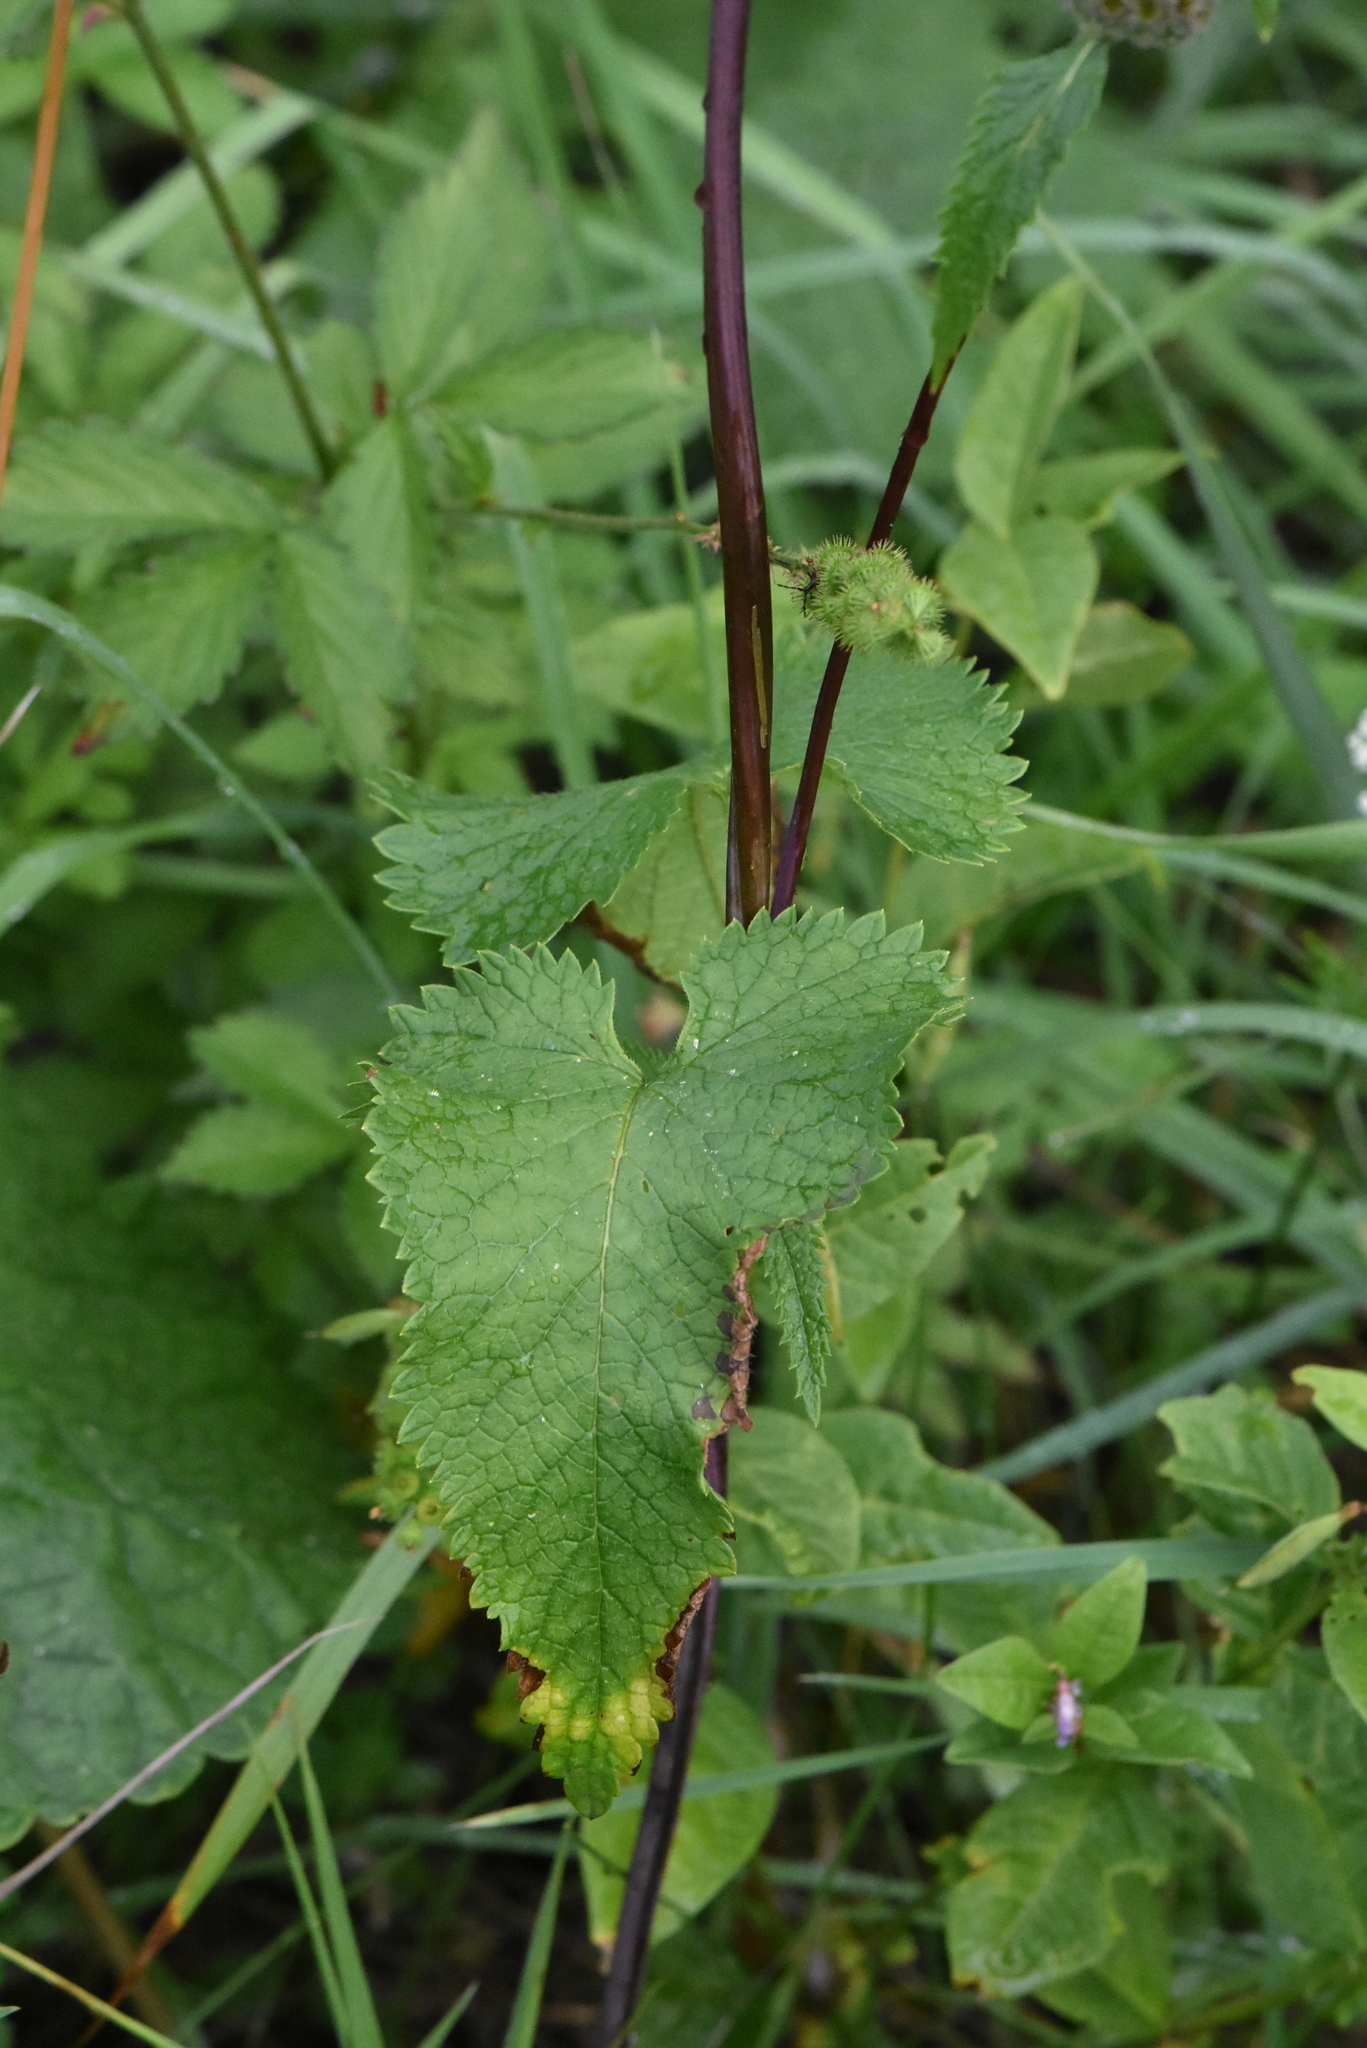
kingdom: Plantae
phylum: Tracheophyta
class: Magnoliopsida
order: Lamiales
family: Lamiaceae
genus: Phlomoides
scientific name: Phlomoides tuberosa
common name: Tuberous jerusalem sage
